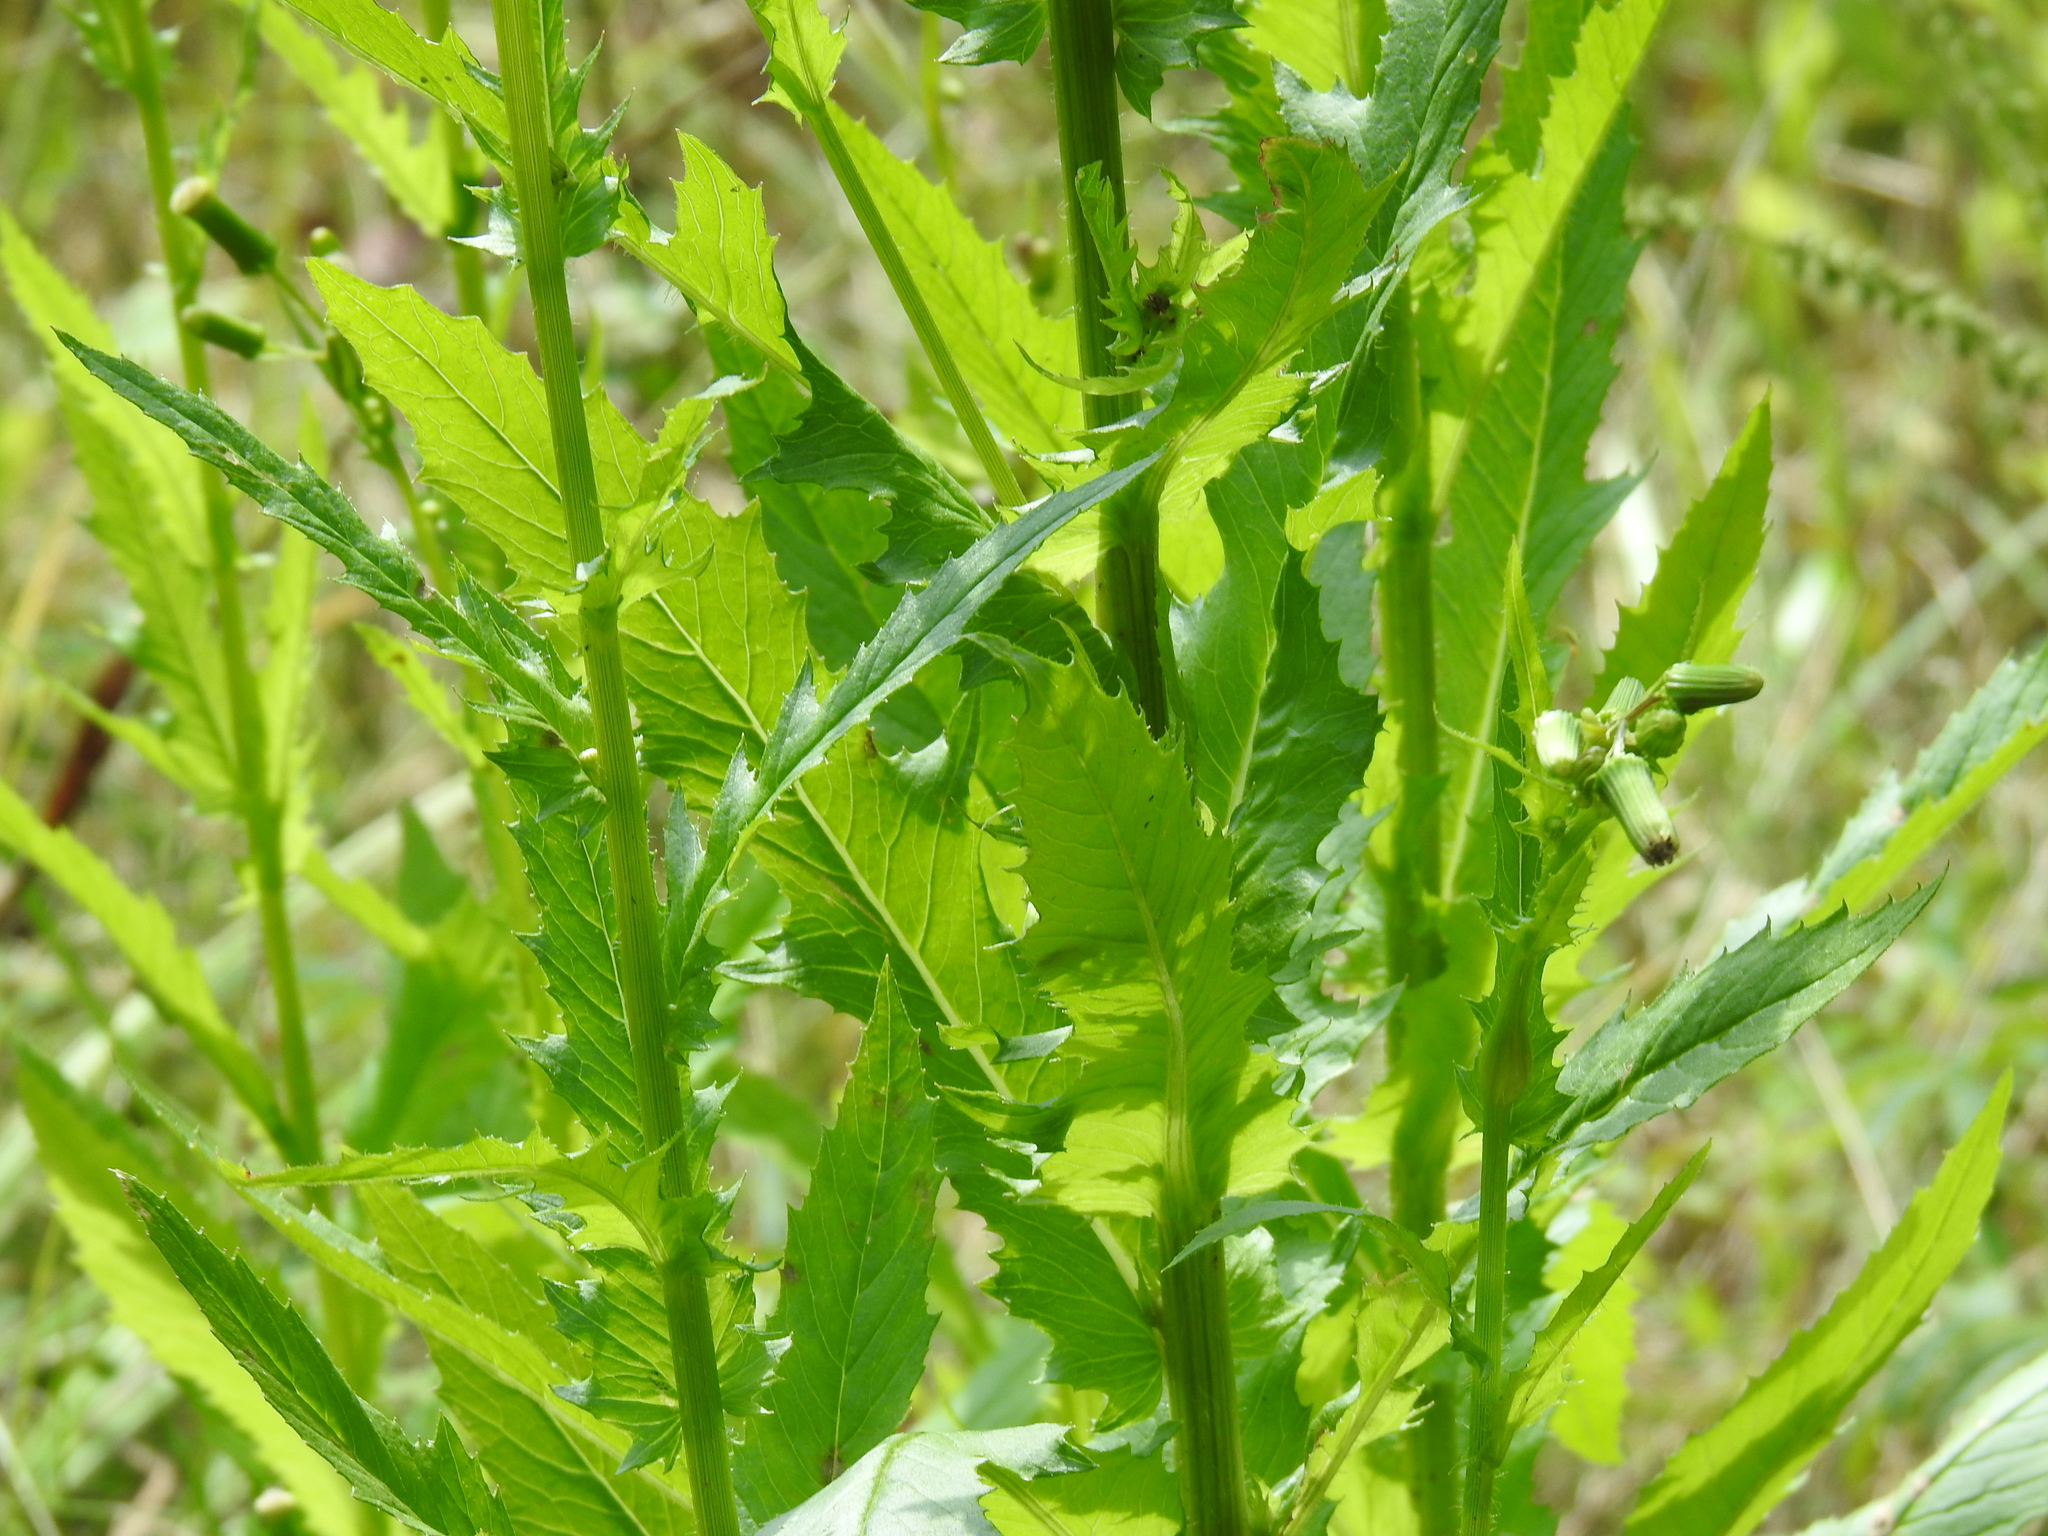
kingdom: Plantae
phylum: Tracheophyta
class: Magnoliopsida
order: Asterales
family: Asteraceae
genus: Erechtites
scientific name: Erechtites hieraciifolius
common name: American burnweed
